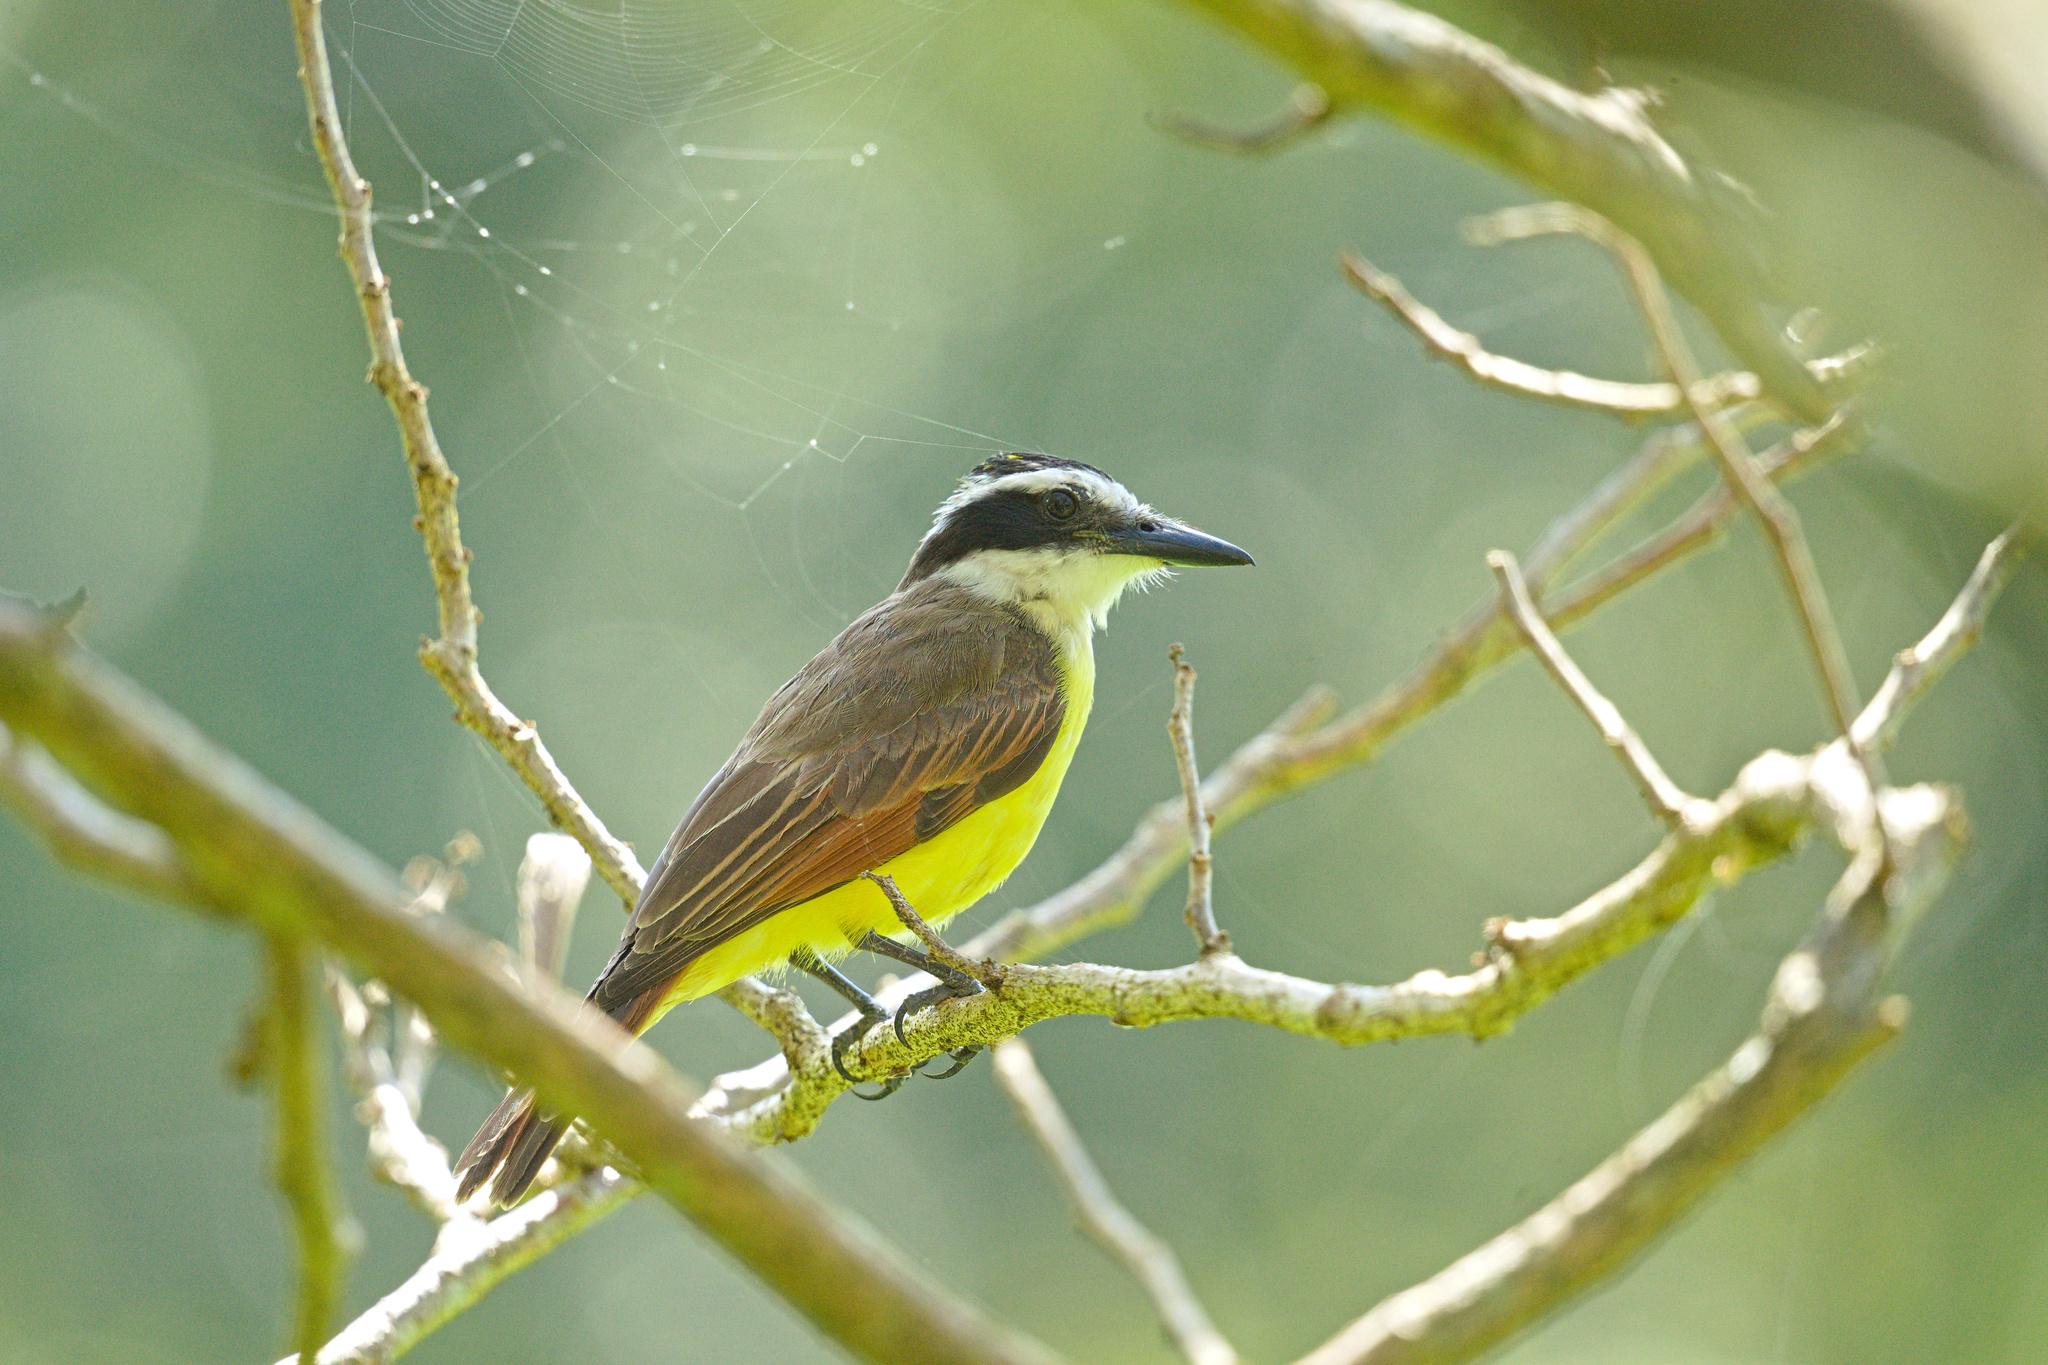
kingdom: Animalia
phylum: Chordata
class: Aves
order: Passeriformes
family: Tyrannidae
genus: Pitangus
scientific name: Pitangus sulphuratus
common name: Great kiskadee
